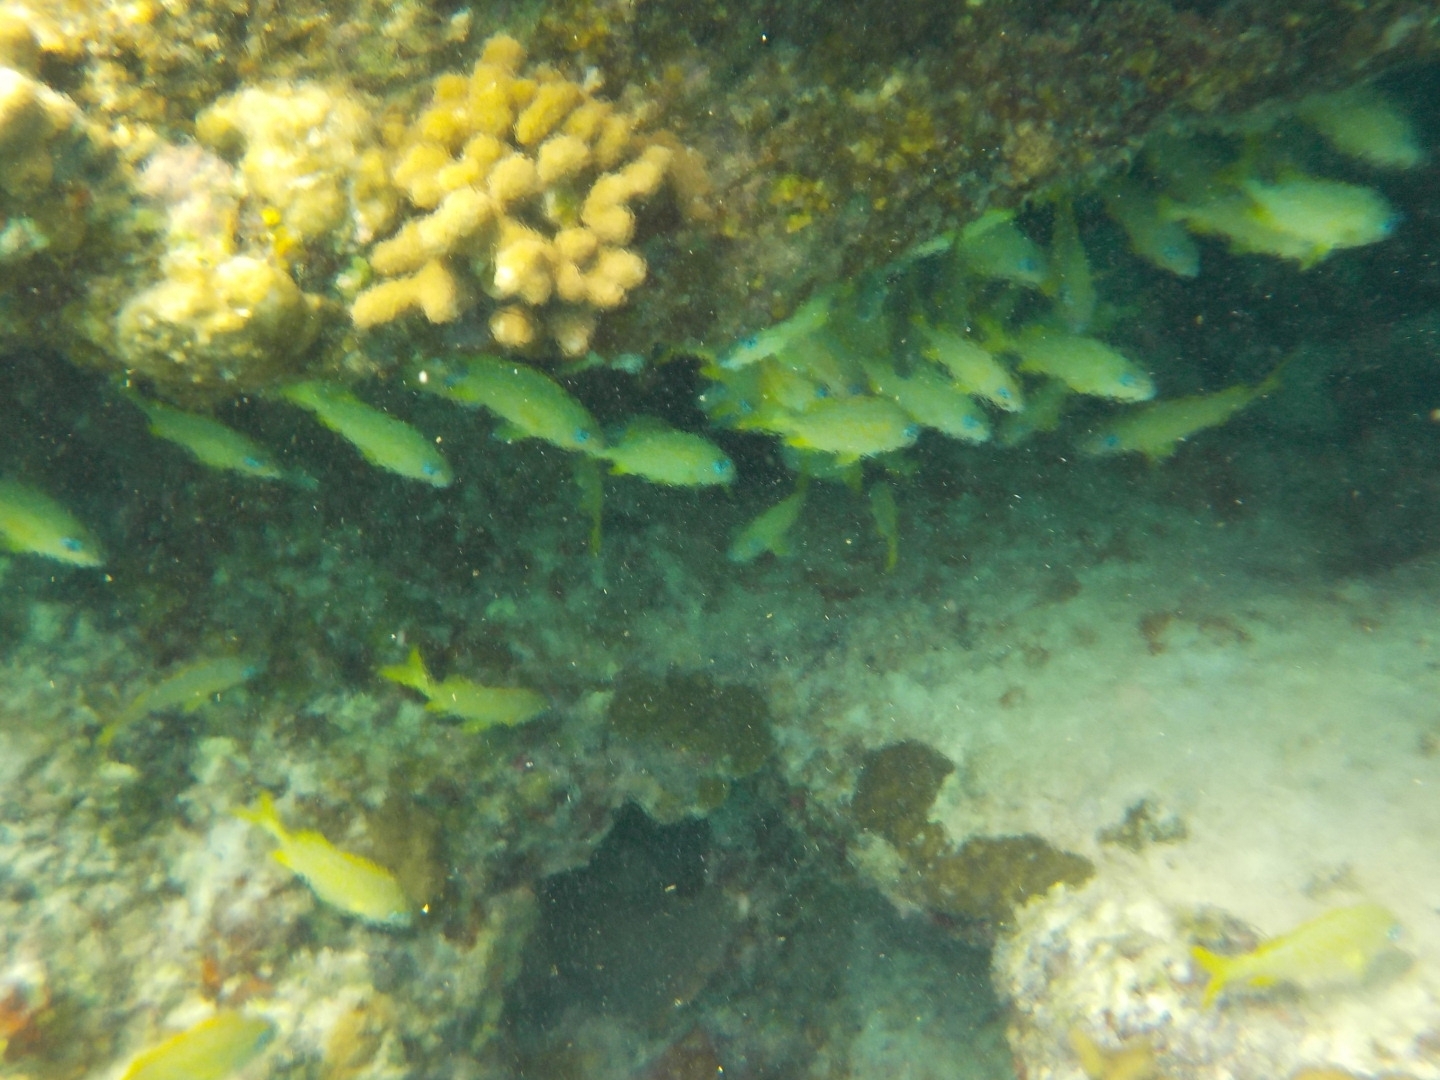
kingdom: Animalia
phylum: Chordata
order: Perciformes
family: Haemulidae
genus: Haemulon
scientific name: Haemulon flavolineatum
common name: French grunt
